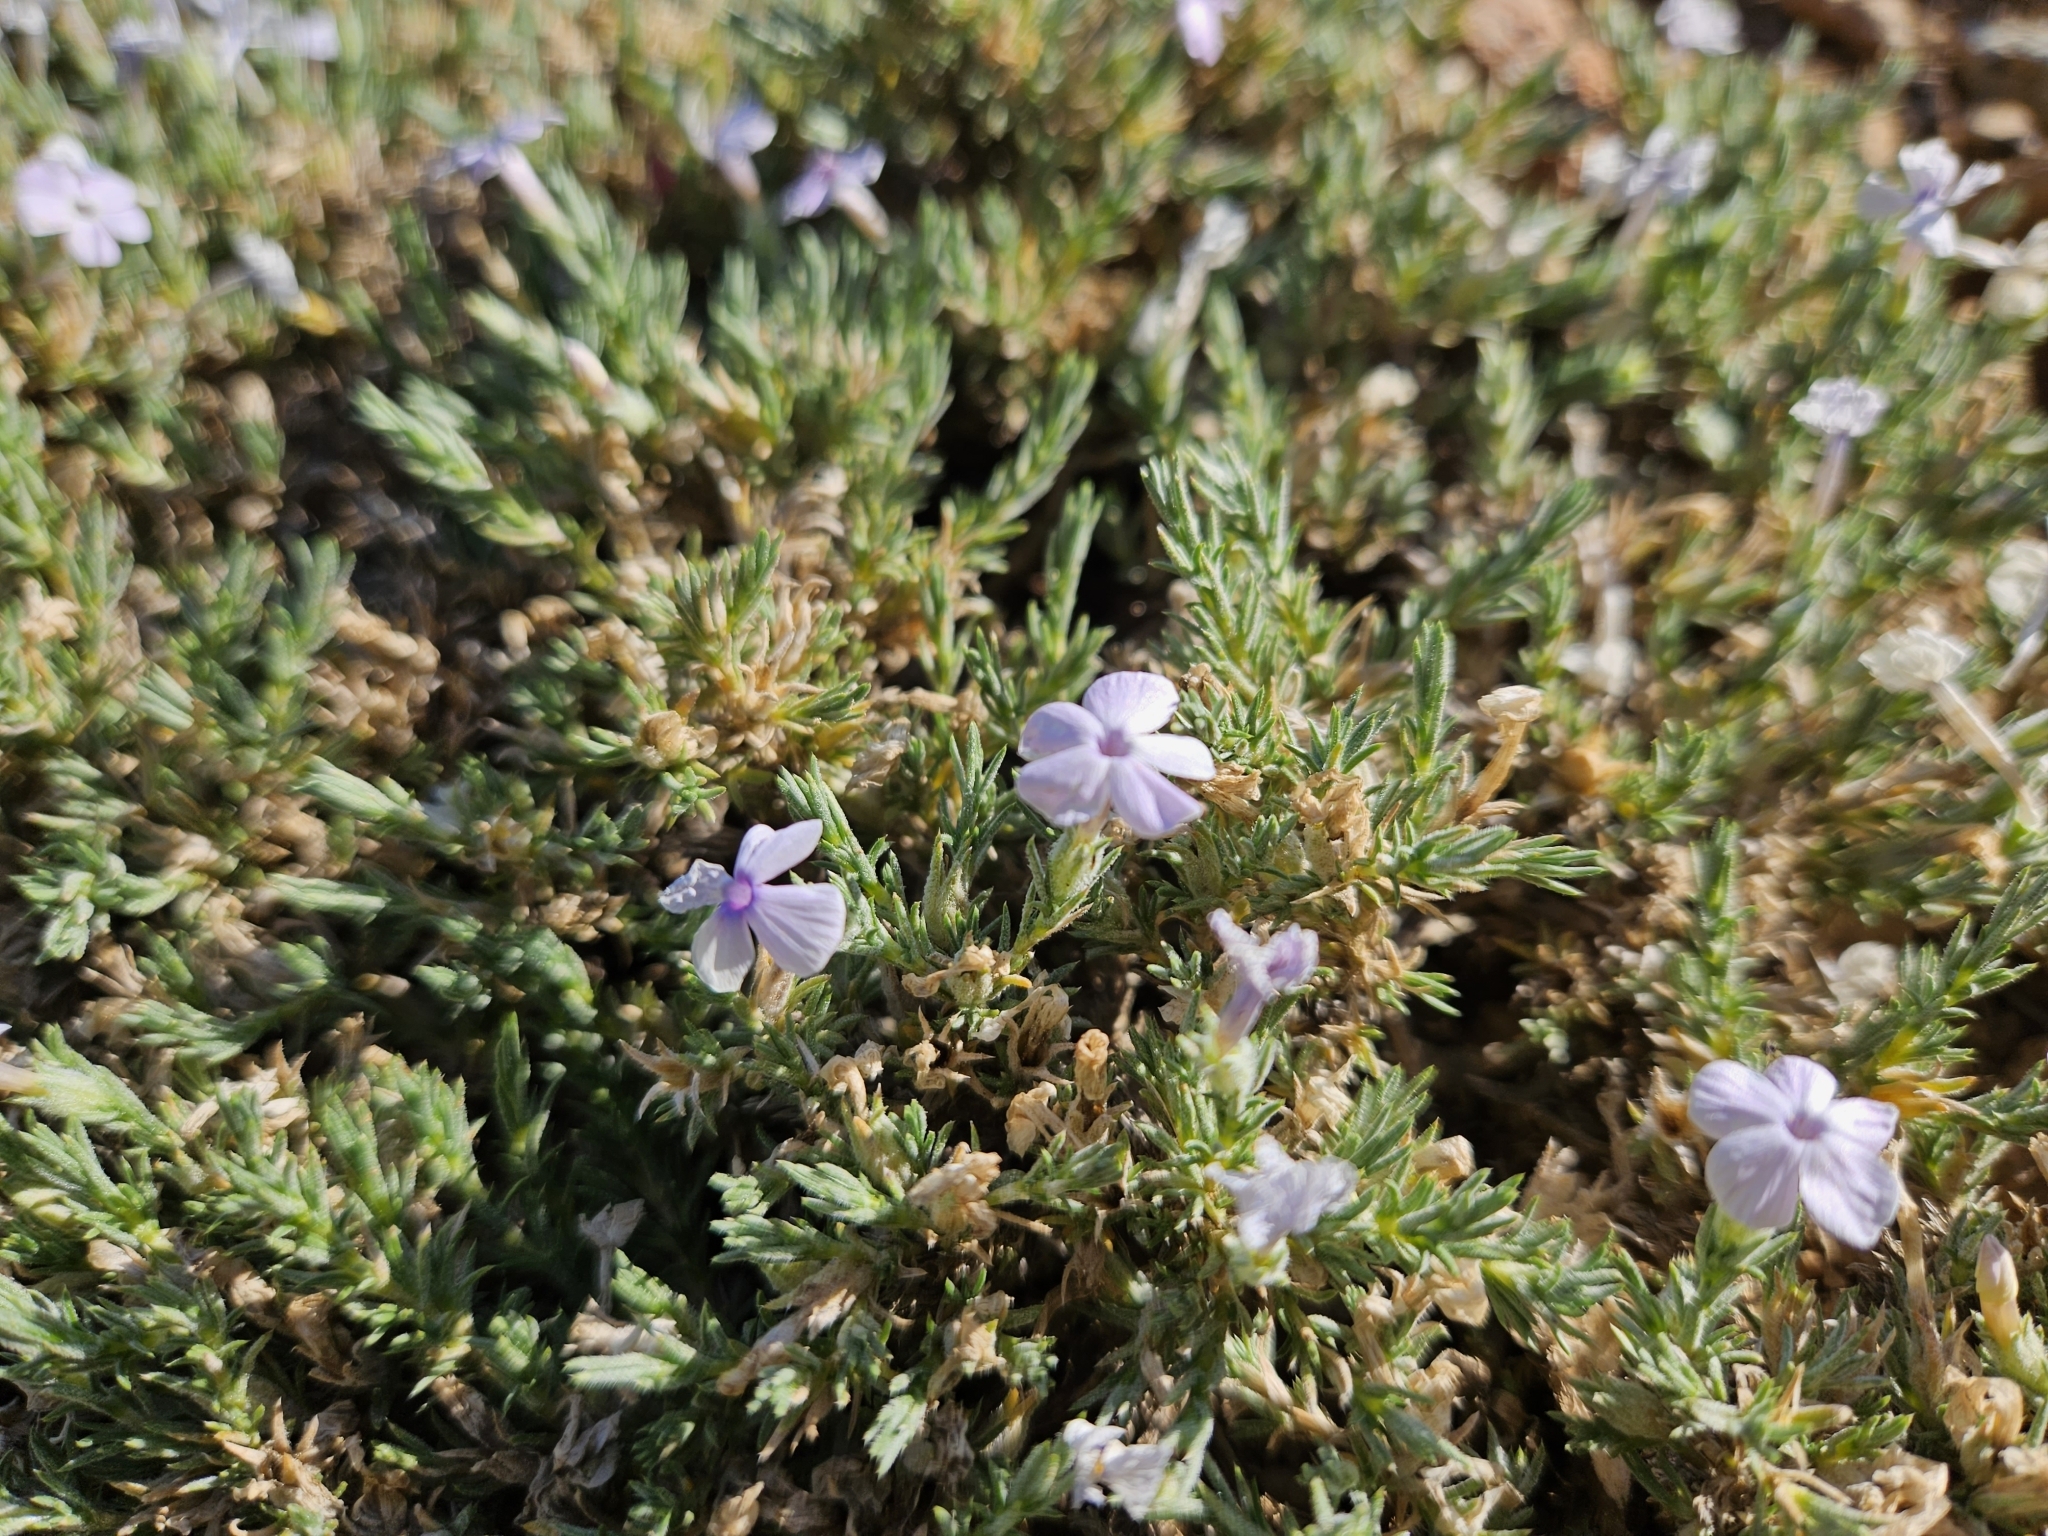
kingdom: Plantae
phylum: Tracheophyta
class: Magnoliopsida
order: Ericales
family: Polemoniaceae
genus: Phlox
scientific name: Phlox diffusa
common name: Mat phlox
